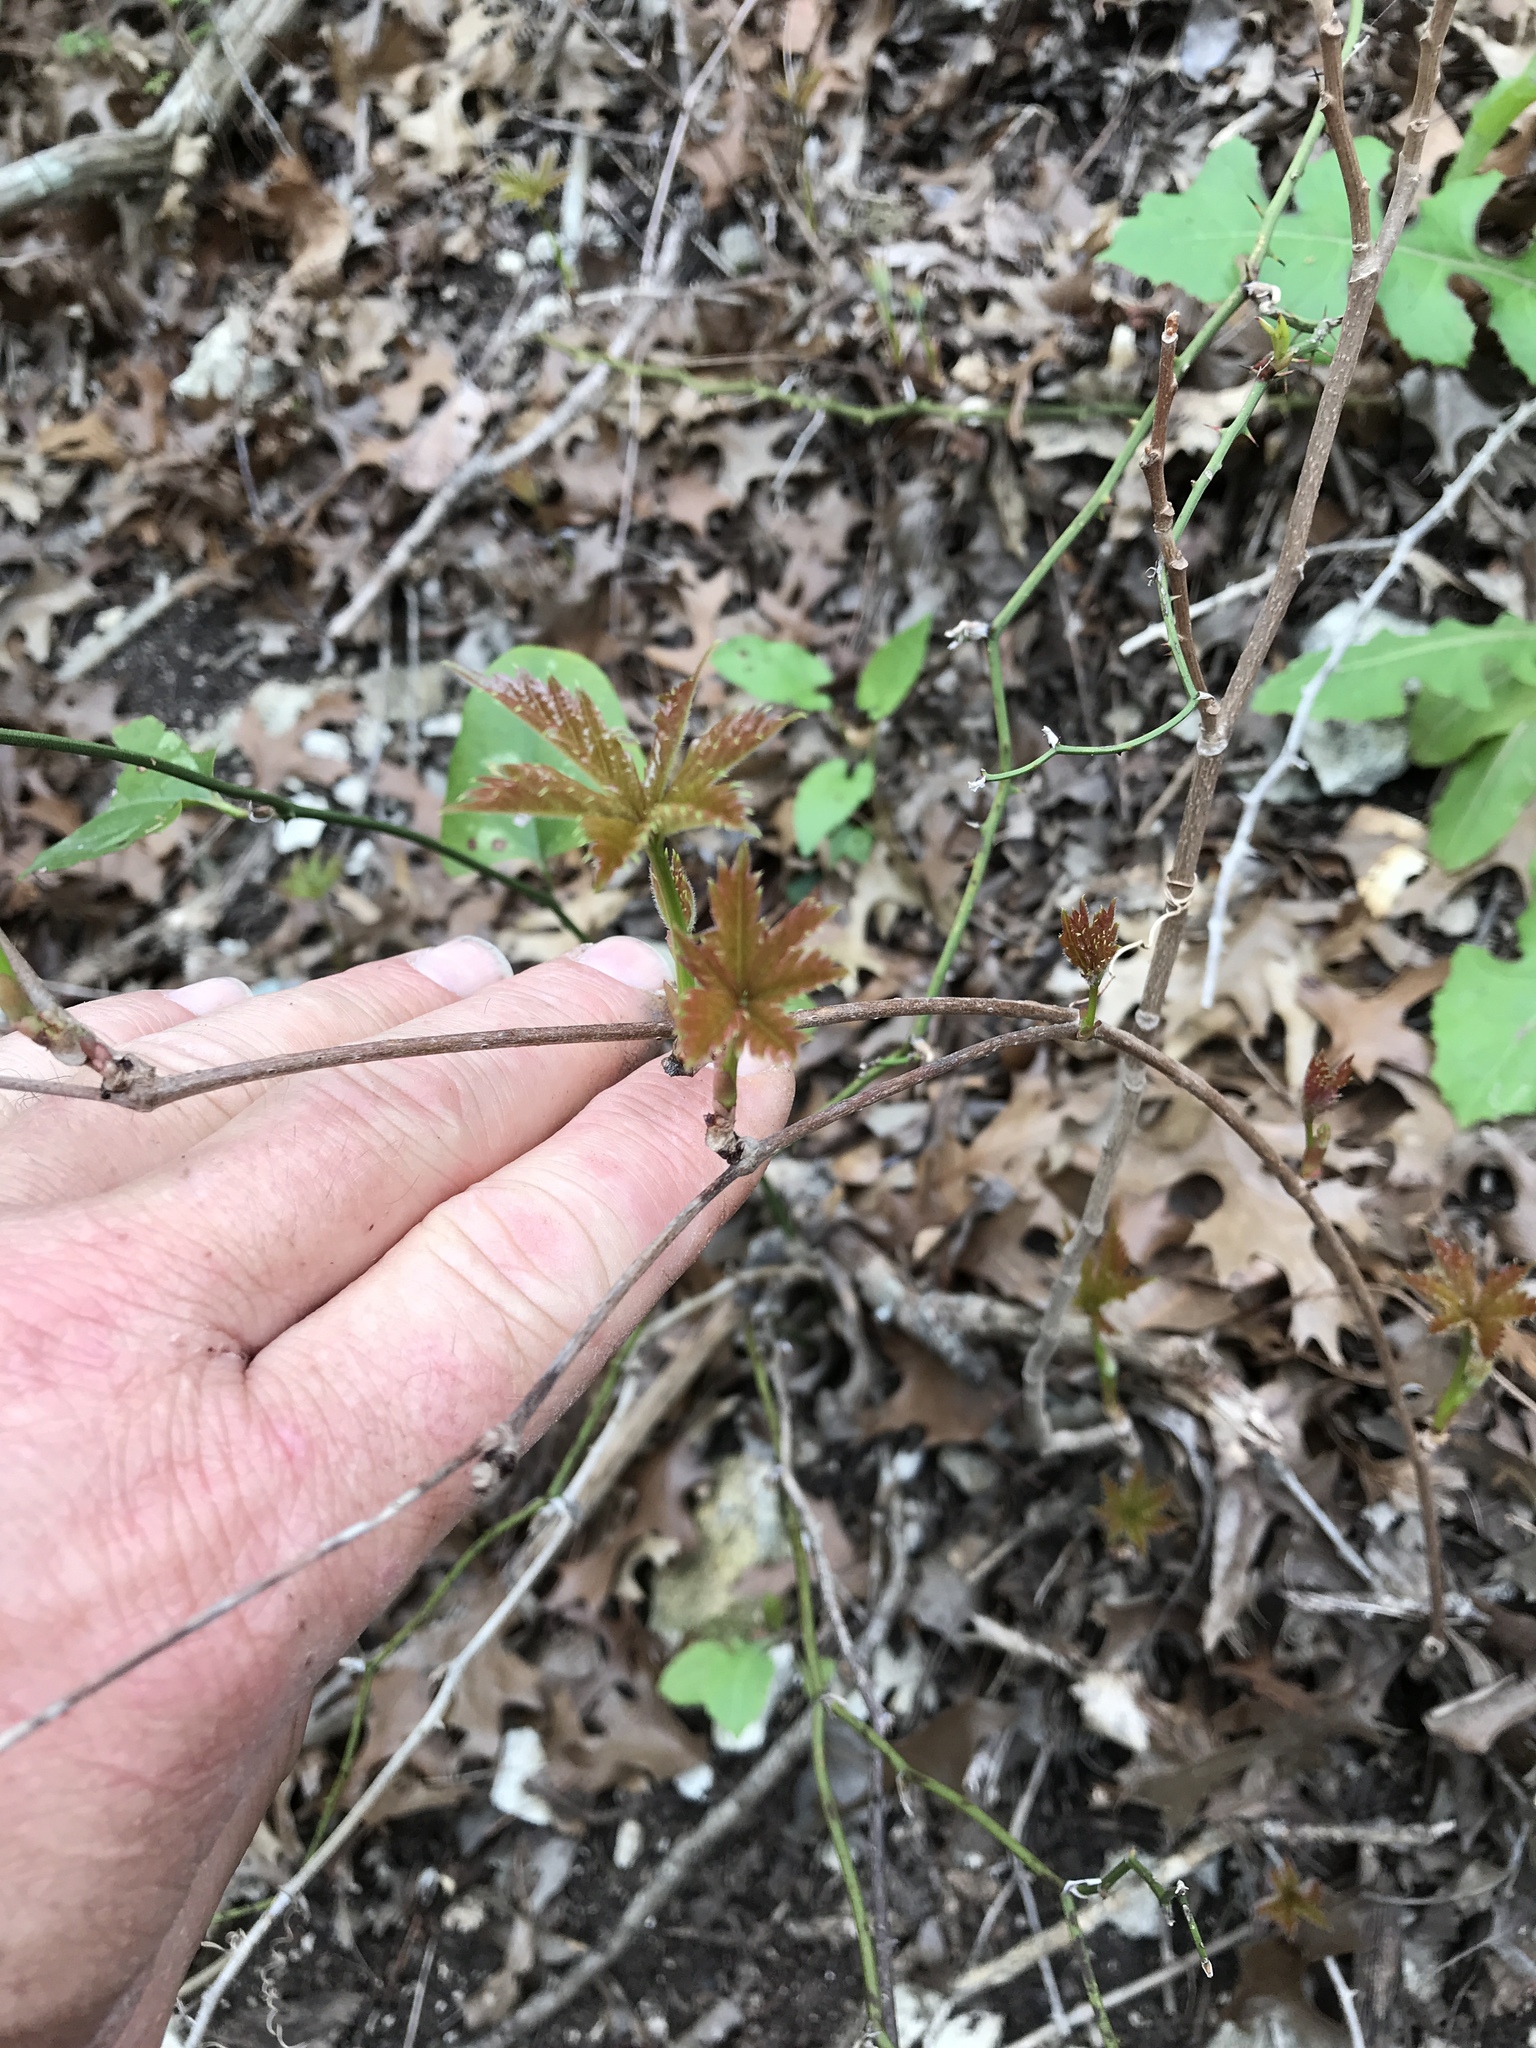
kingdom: Plantae
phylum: Tracheophyta
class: Magnoliopsida
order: Vitales
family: Vitaceae
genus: Parthenocissus
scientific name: Parthenocissus heptaphylla
